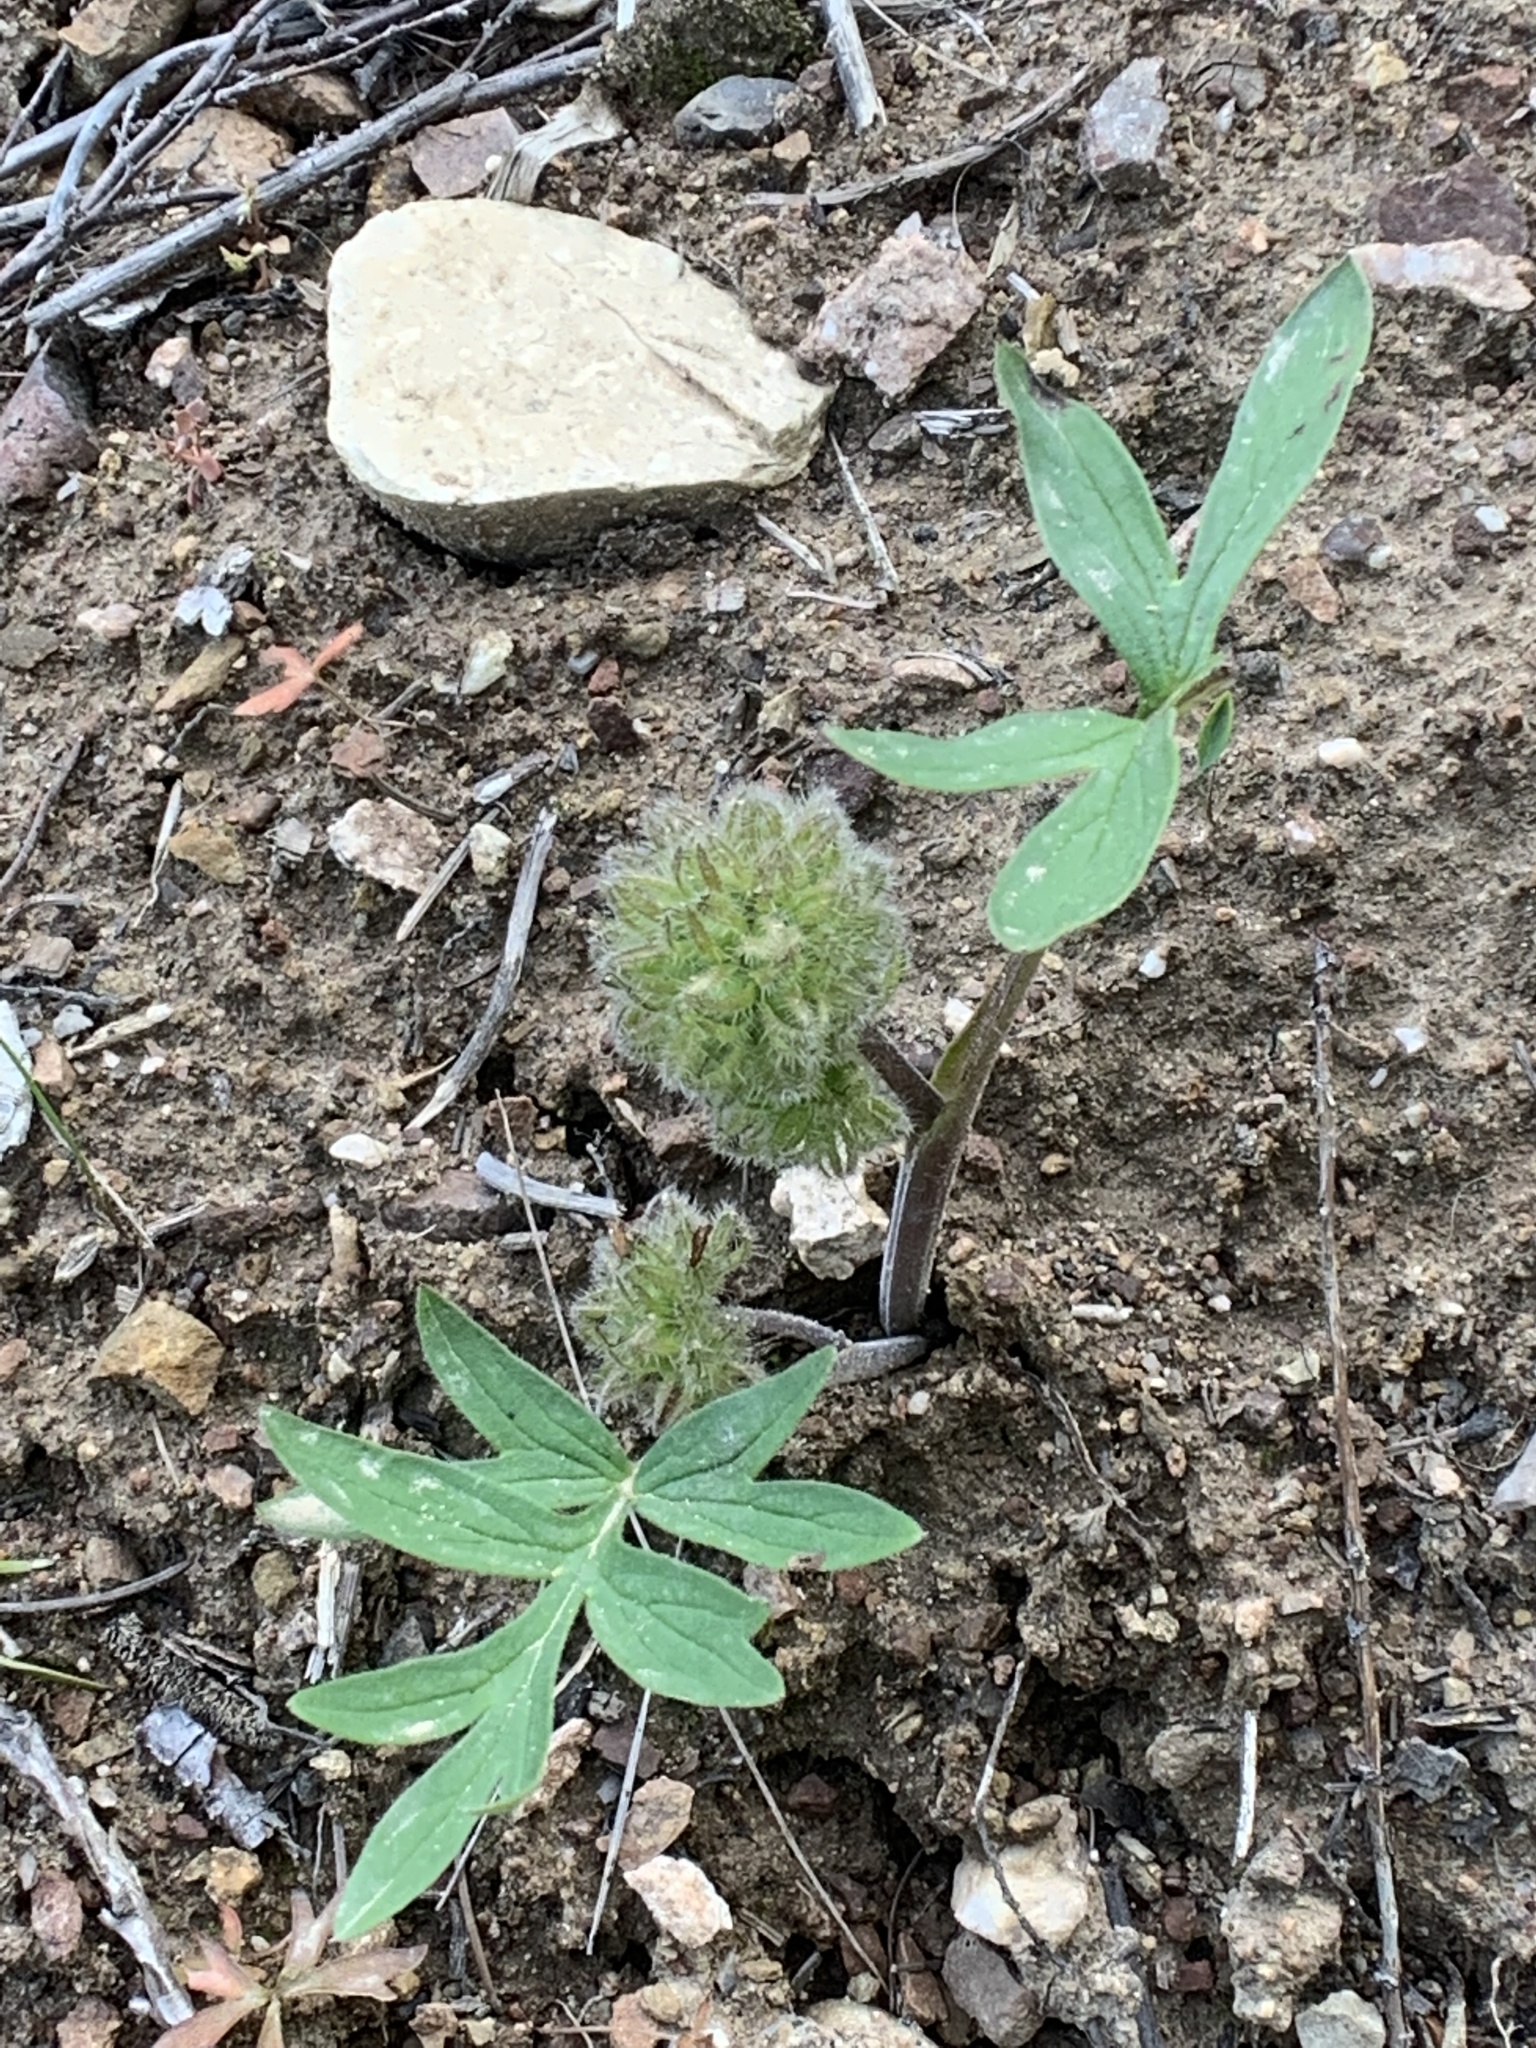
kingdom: Plantae
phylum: Tracheophyta
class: Magnoliopsida
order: Boraginales
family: Hydrophyllaceae
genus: Hydrophyllum
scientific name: Hydrophyllum capitatum
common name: Woollen-breeches
